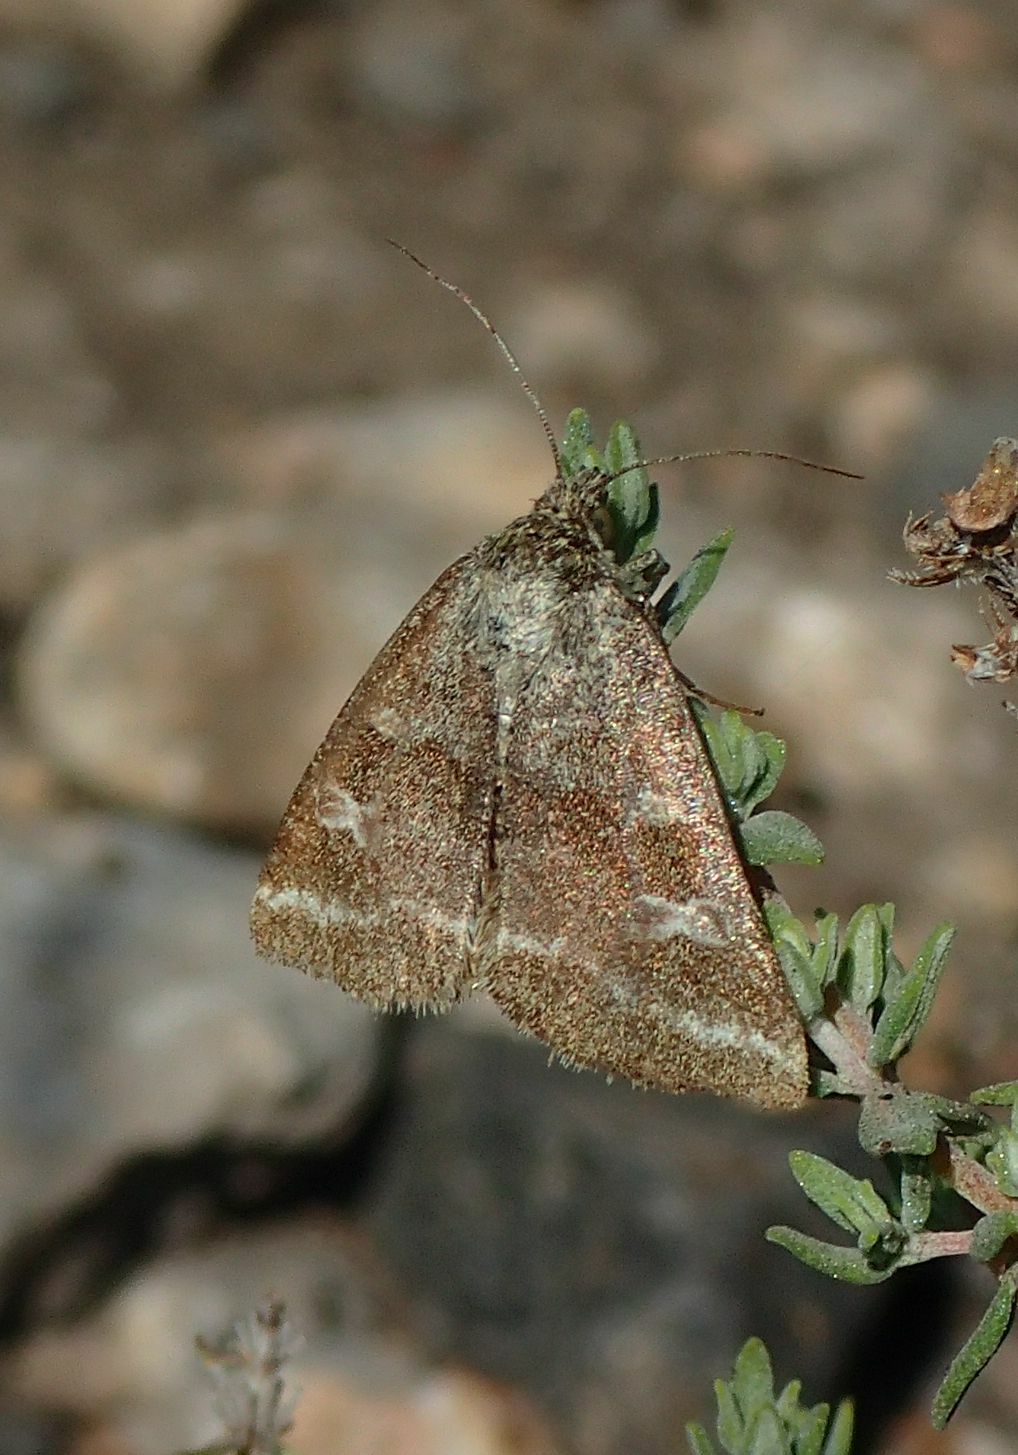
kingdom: Animalia
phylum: Arthropoda
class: Insecta
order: Lepidoptera
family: Noctuidae
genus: Synthymia
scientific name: Synthymia fixa
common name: Goldwing
